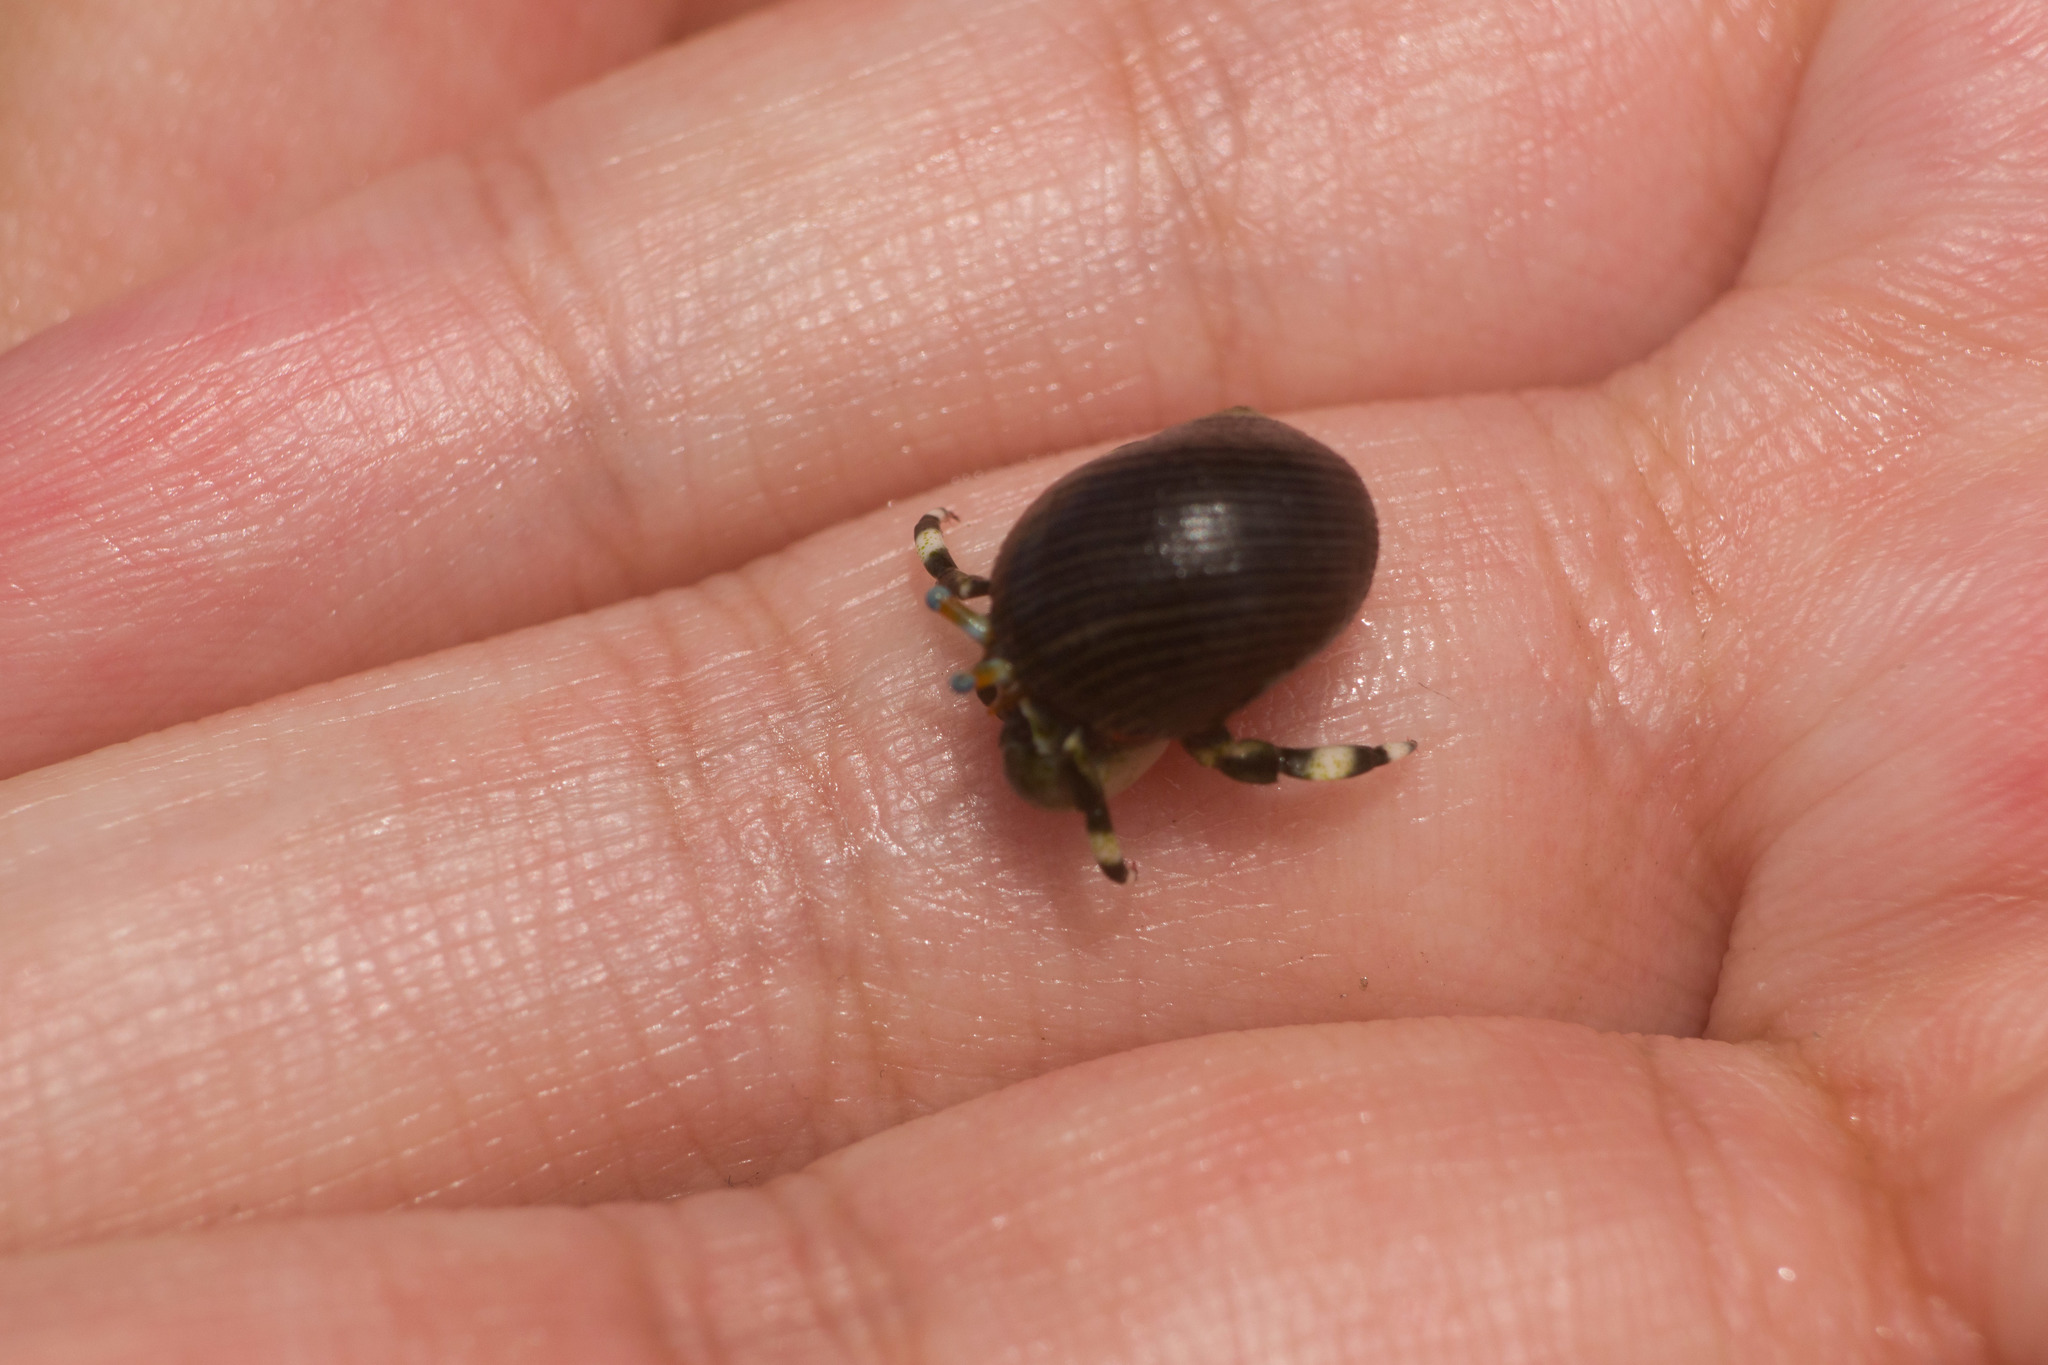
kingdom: Animalia
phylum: Arthropoda
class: Malacostraca
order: Decapoda
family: Diogenidae
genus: Calcinus
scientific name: Calcinus seurati
